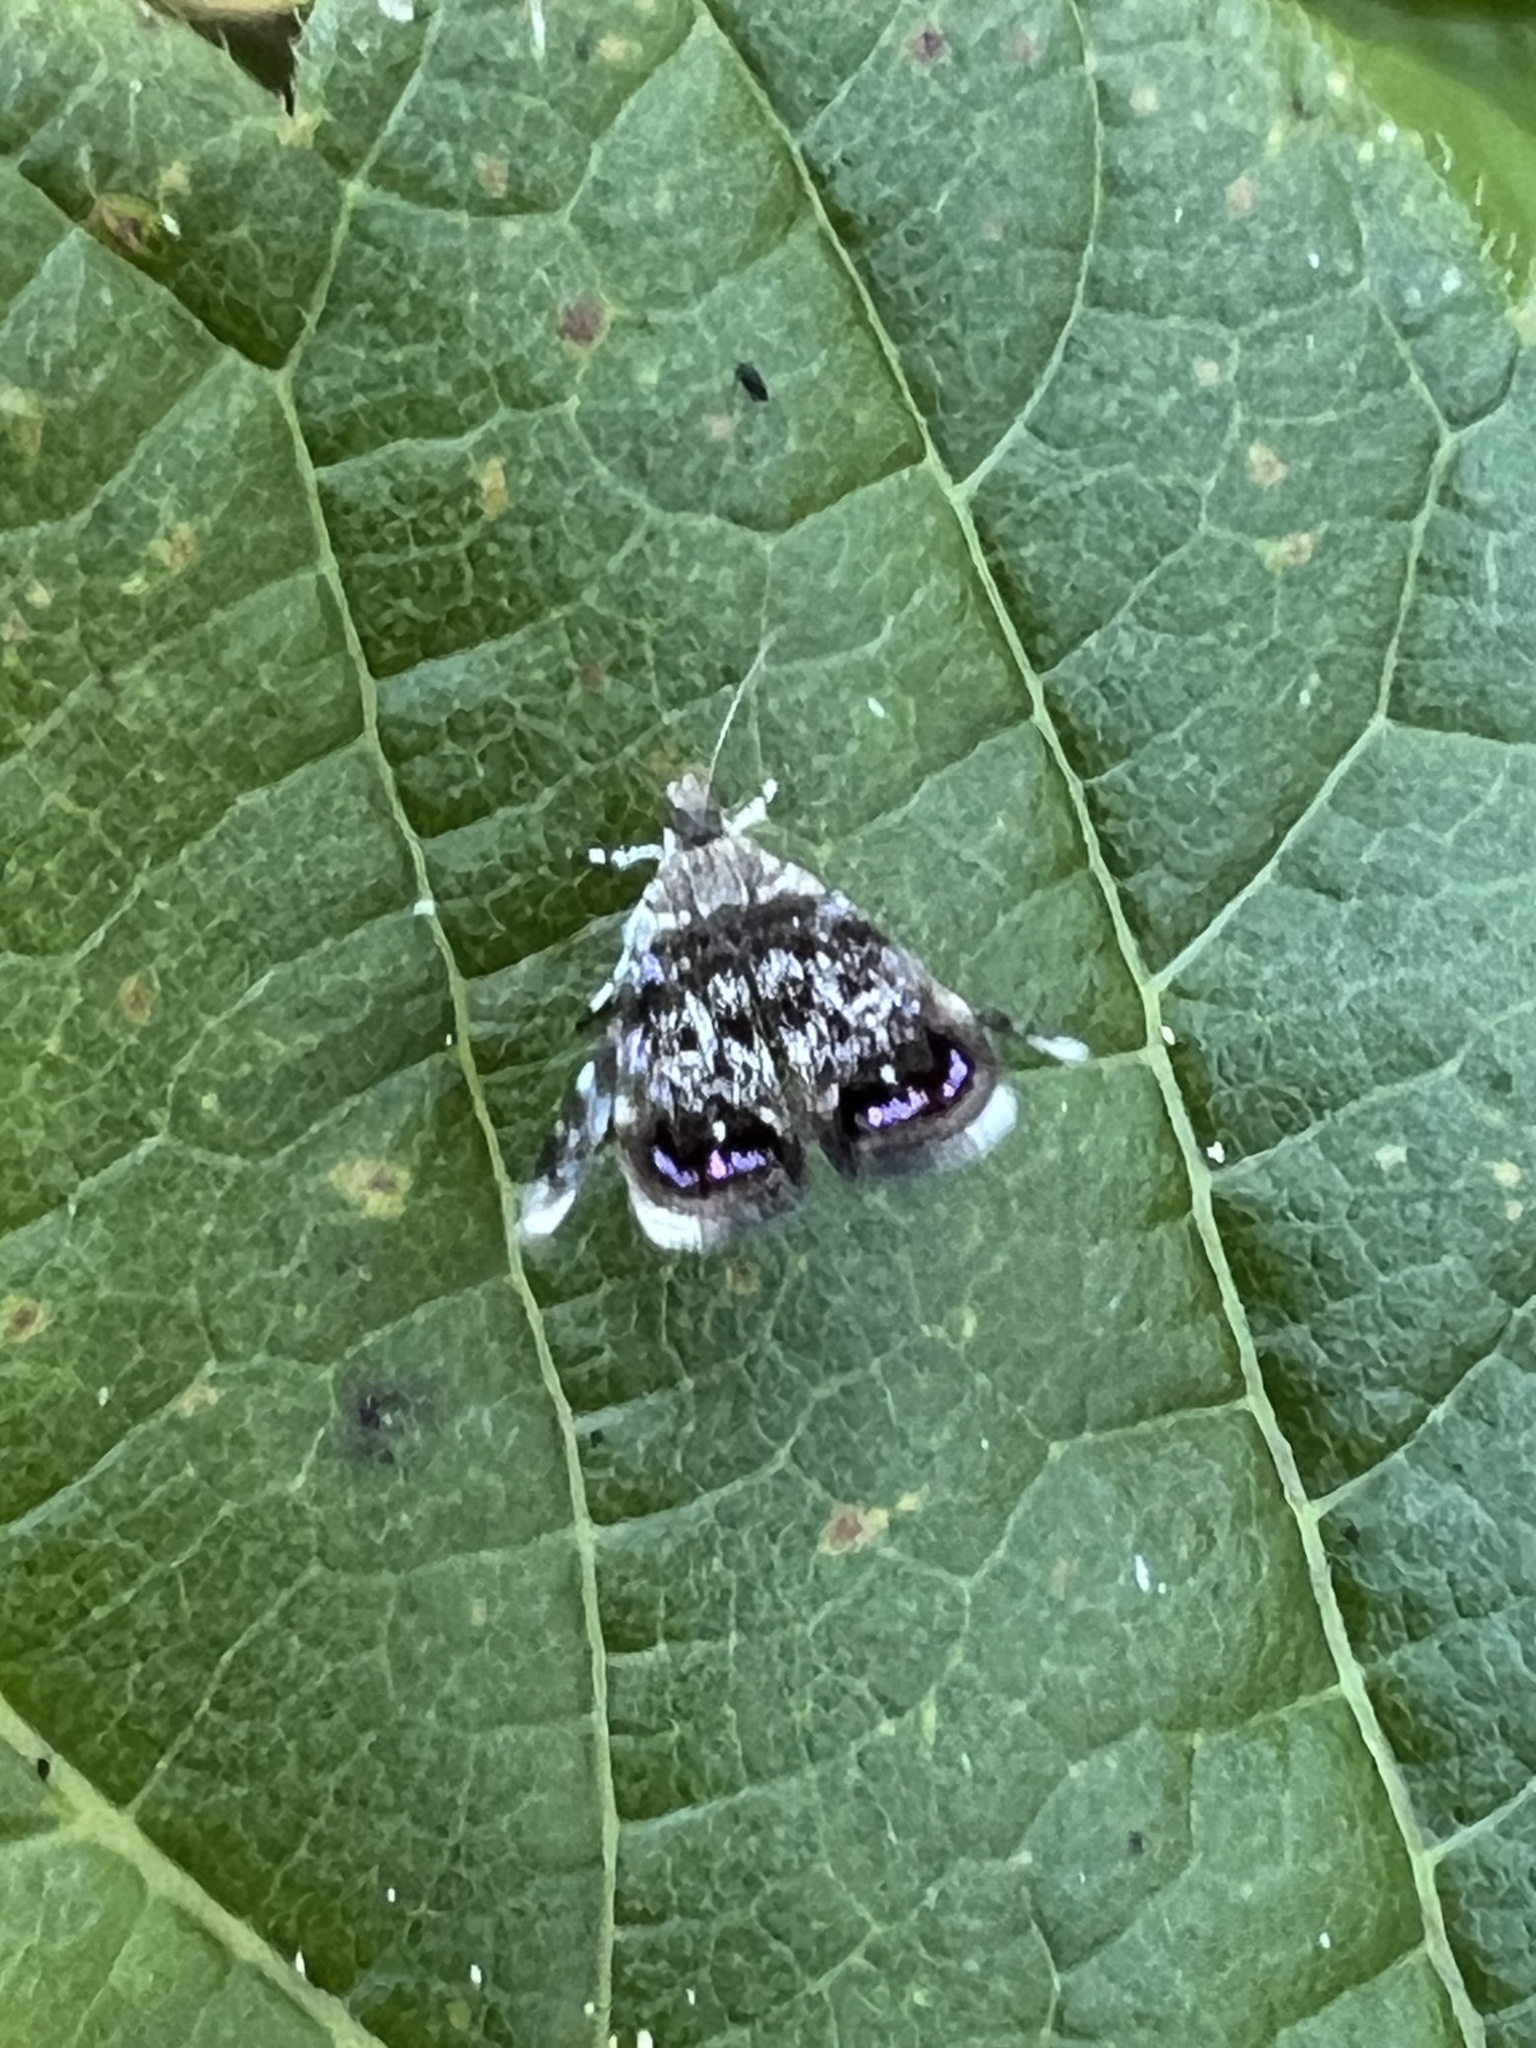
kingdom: Animalia
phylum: Arthropoda
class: Insecta
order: Lepidoptera
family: Choreutidae
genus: Brenthia
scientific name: Brenthia pavonacella
